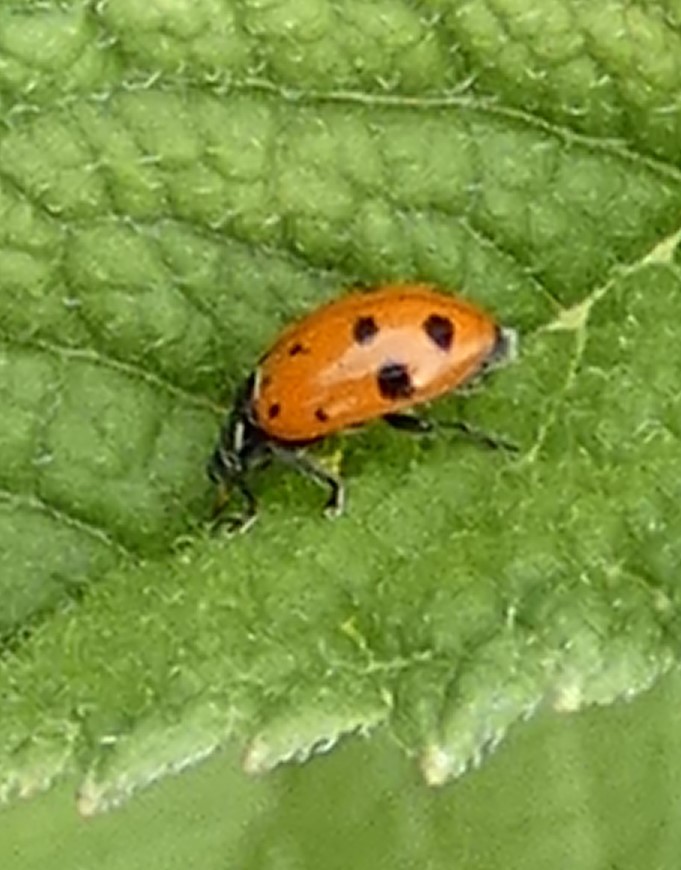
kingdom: Animalia
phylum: Arthropoda
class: Insecta
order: Coleoptera
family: Coccinellidae
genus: Hippodamia
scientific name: Hippodamia convergens
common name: Convergent lady beetle
